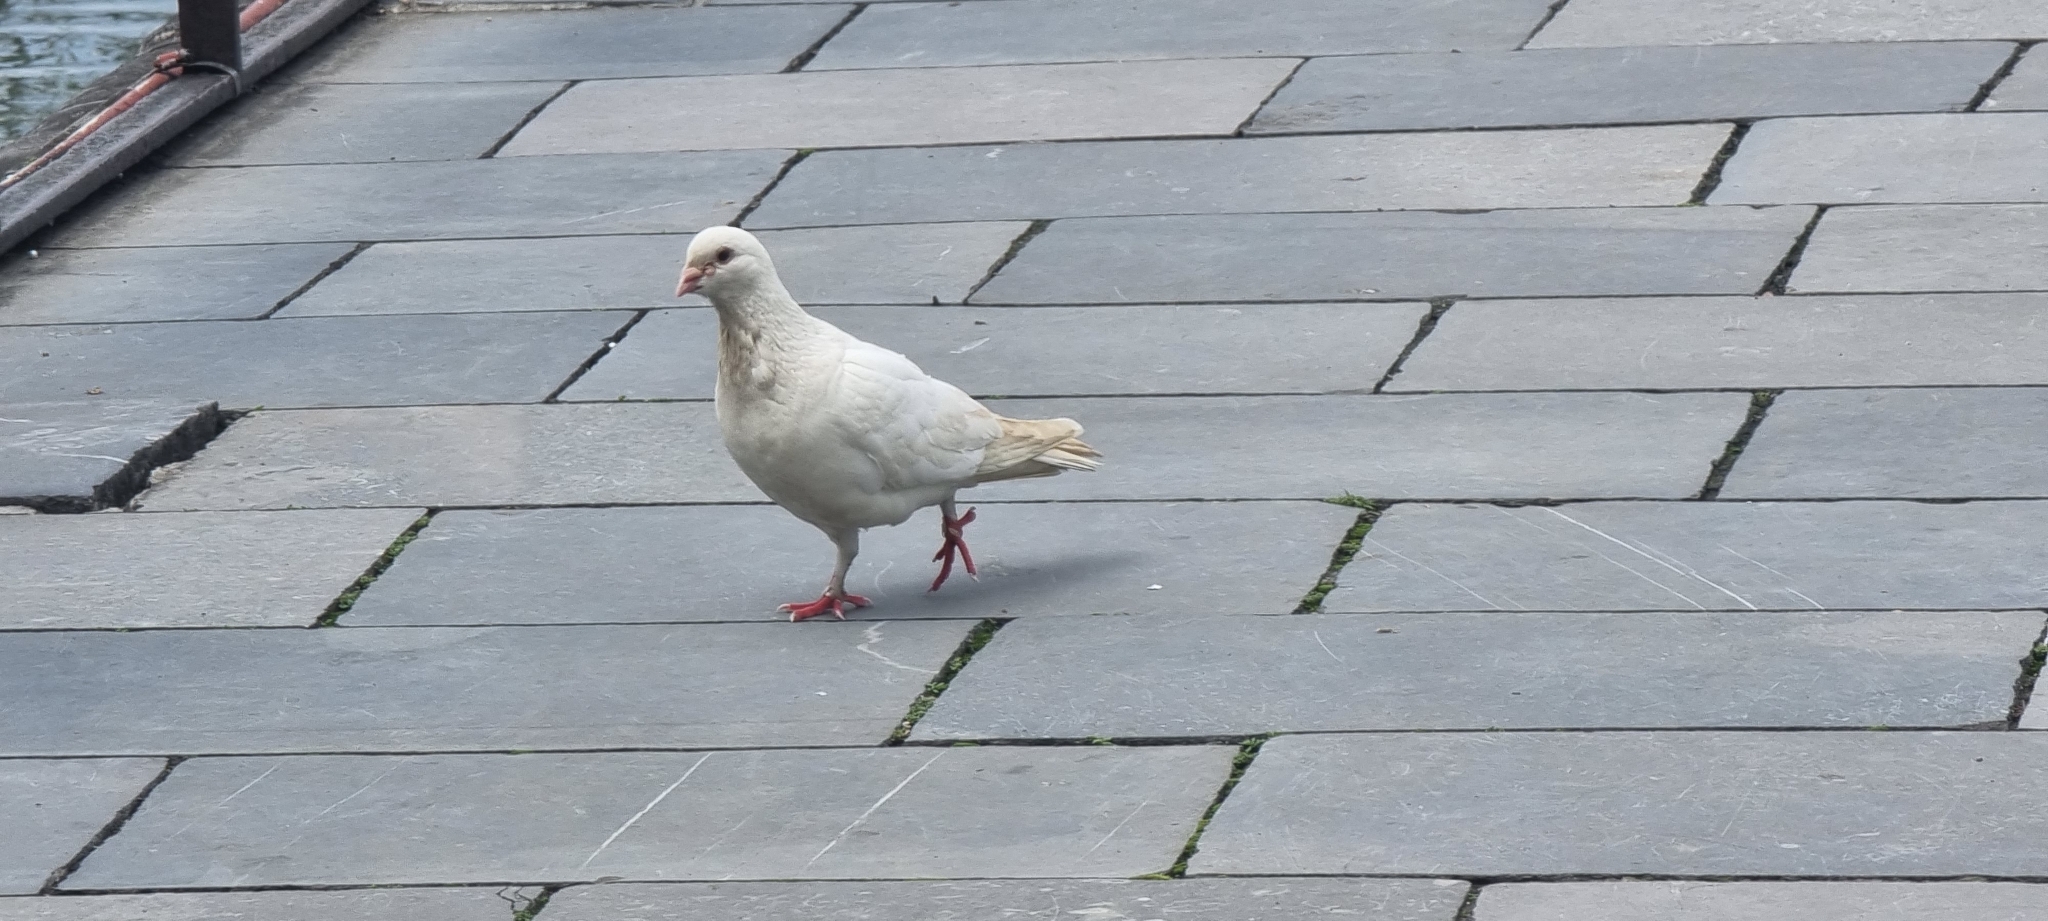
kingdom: Animalia
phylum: Chordata
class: Aves
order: Columbiformes
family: Columbidae
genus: Columba
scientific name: Columba livia
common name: Rock pigeon
